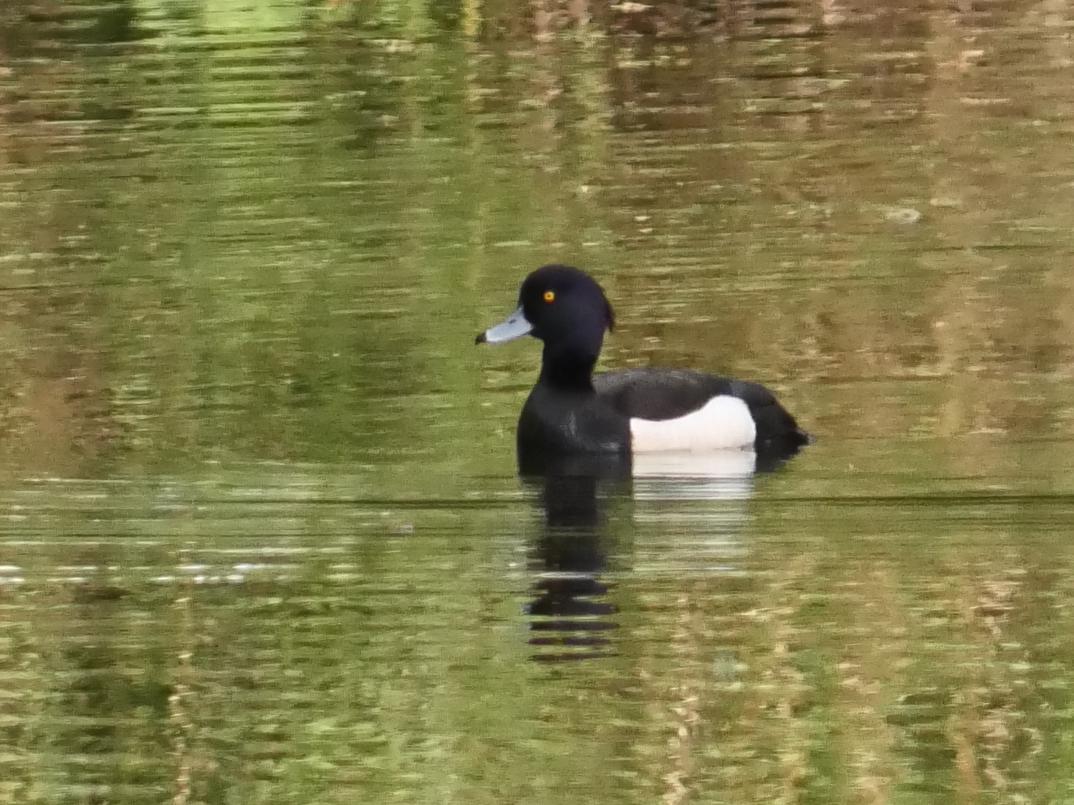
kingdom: Animalia
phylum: Chordata
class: Aves
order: Anseriformes
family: Anatidae
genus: Aythya
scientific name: Aythya fuligula
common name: Tufted duck
